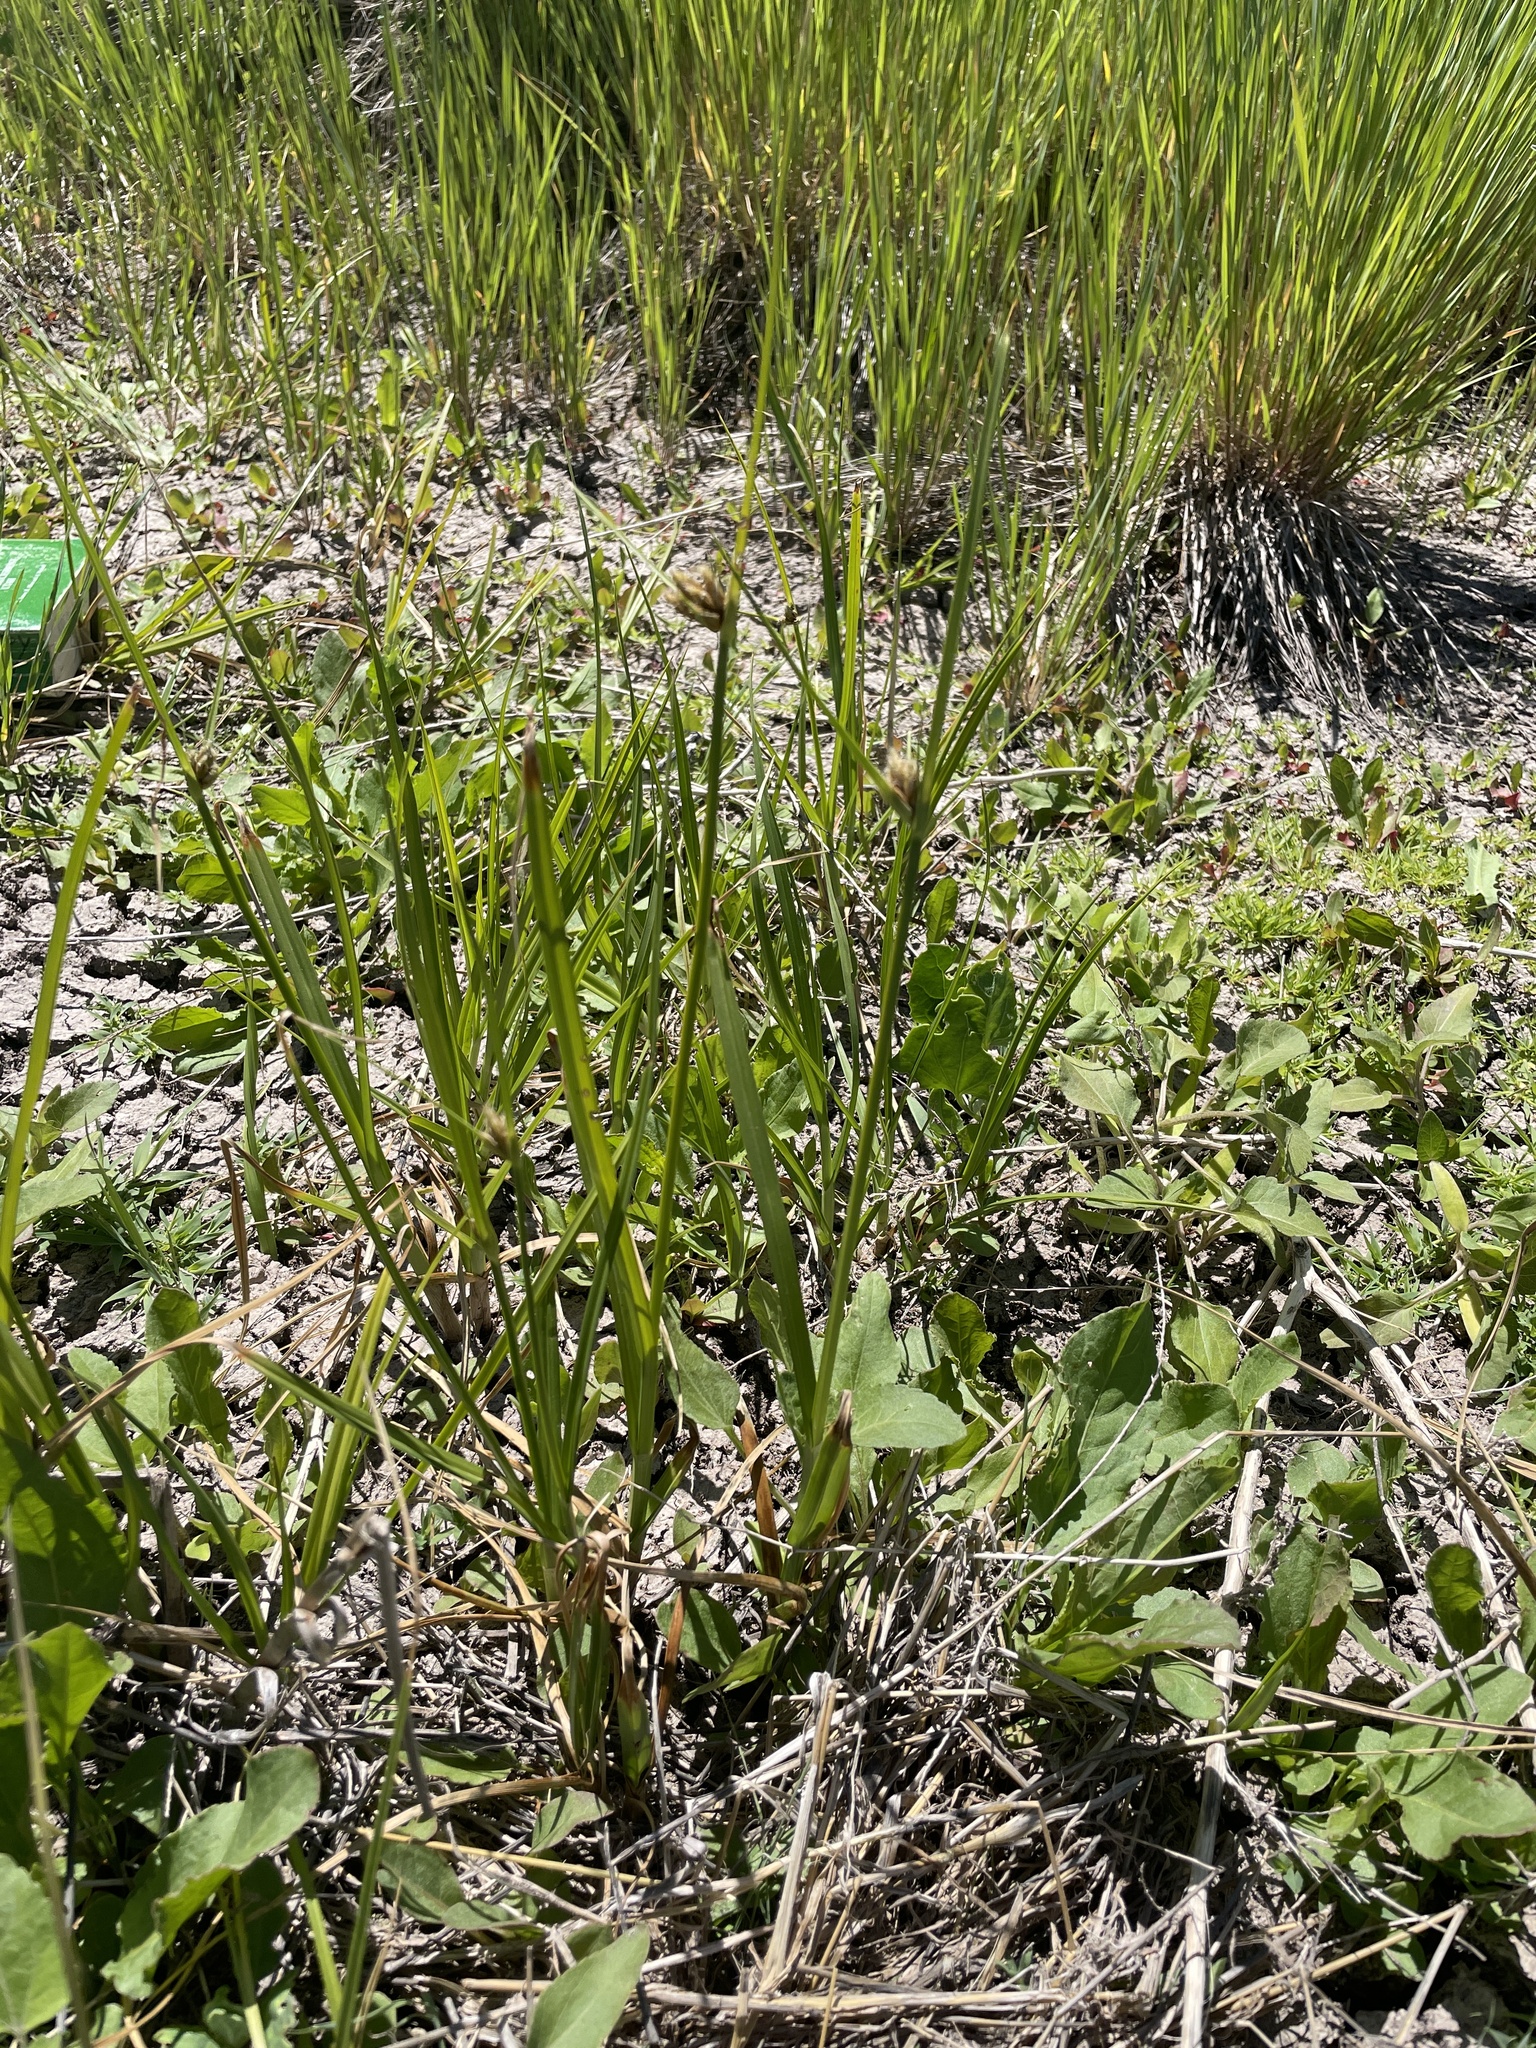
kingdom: Plantae
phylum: Tracheophyta
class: Liliopsida
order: Poales
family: Cyperaceae
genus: Bolboschoenus
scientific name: Bolboschoenus maritimus
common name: Sea club-rush
